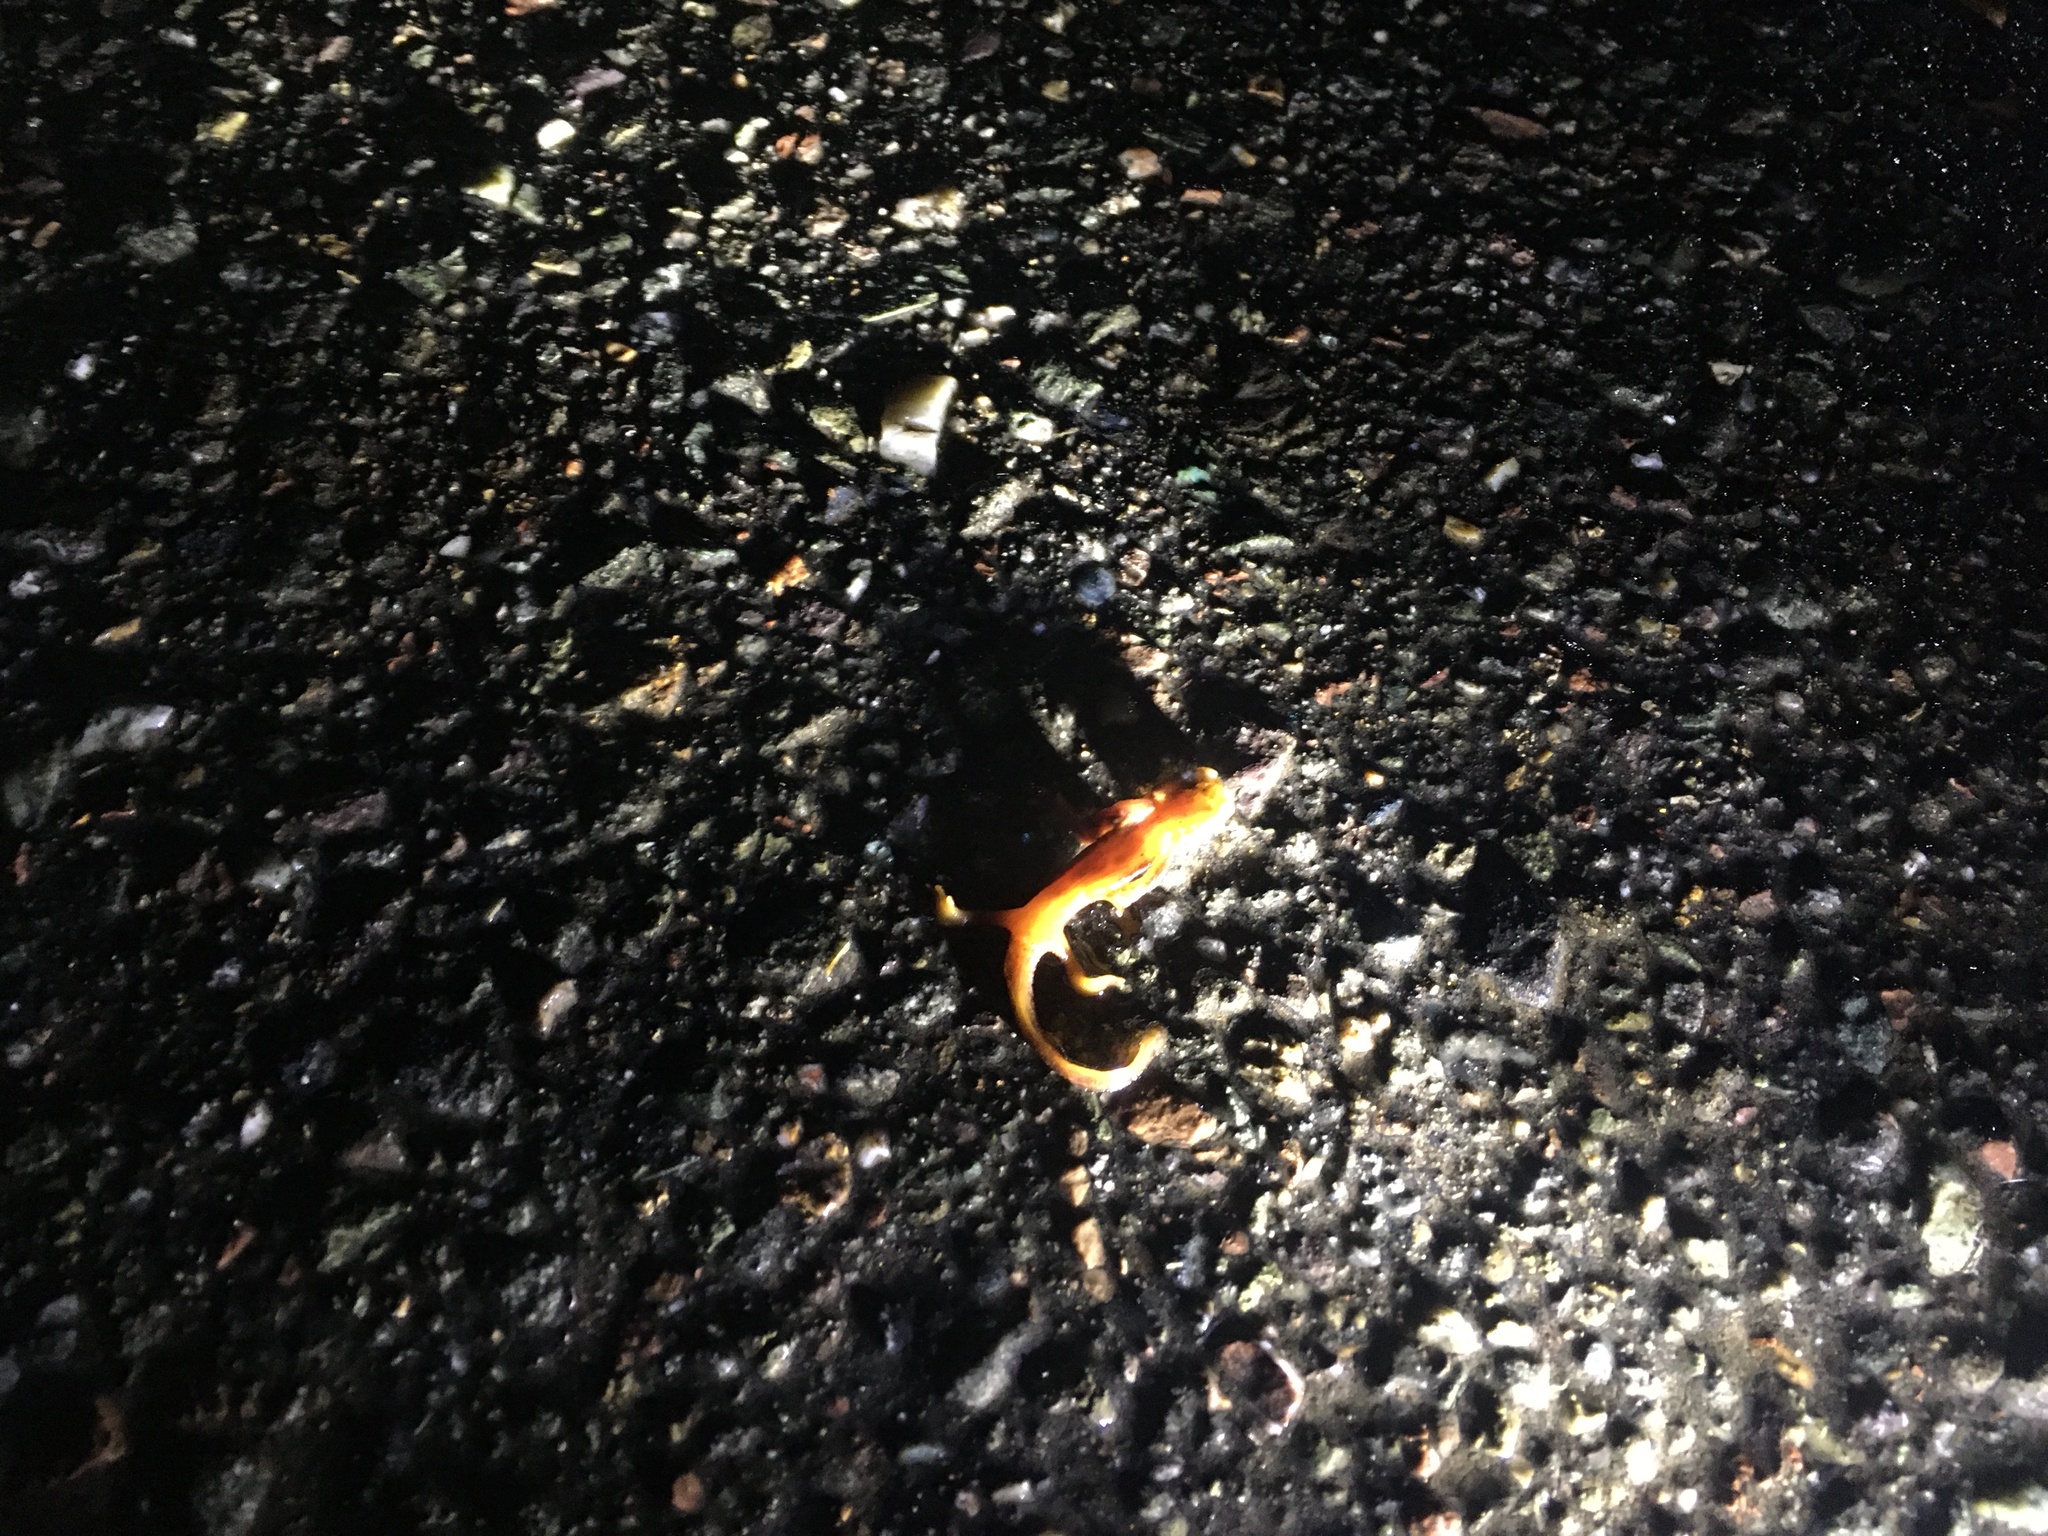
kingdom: Animalia
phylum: Chordata
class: Amphibia
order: Caudata
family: Salamandridae
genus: Taricha
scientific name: Taricha
